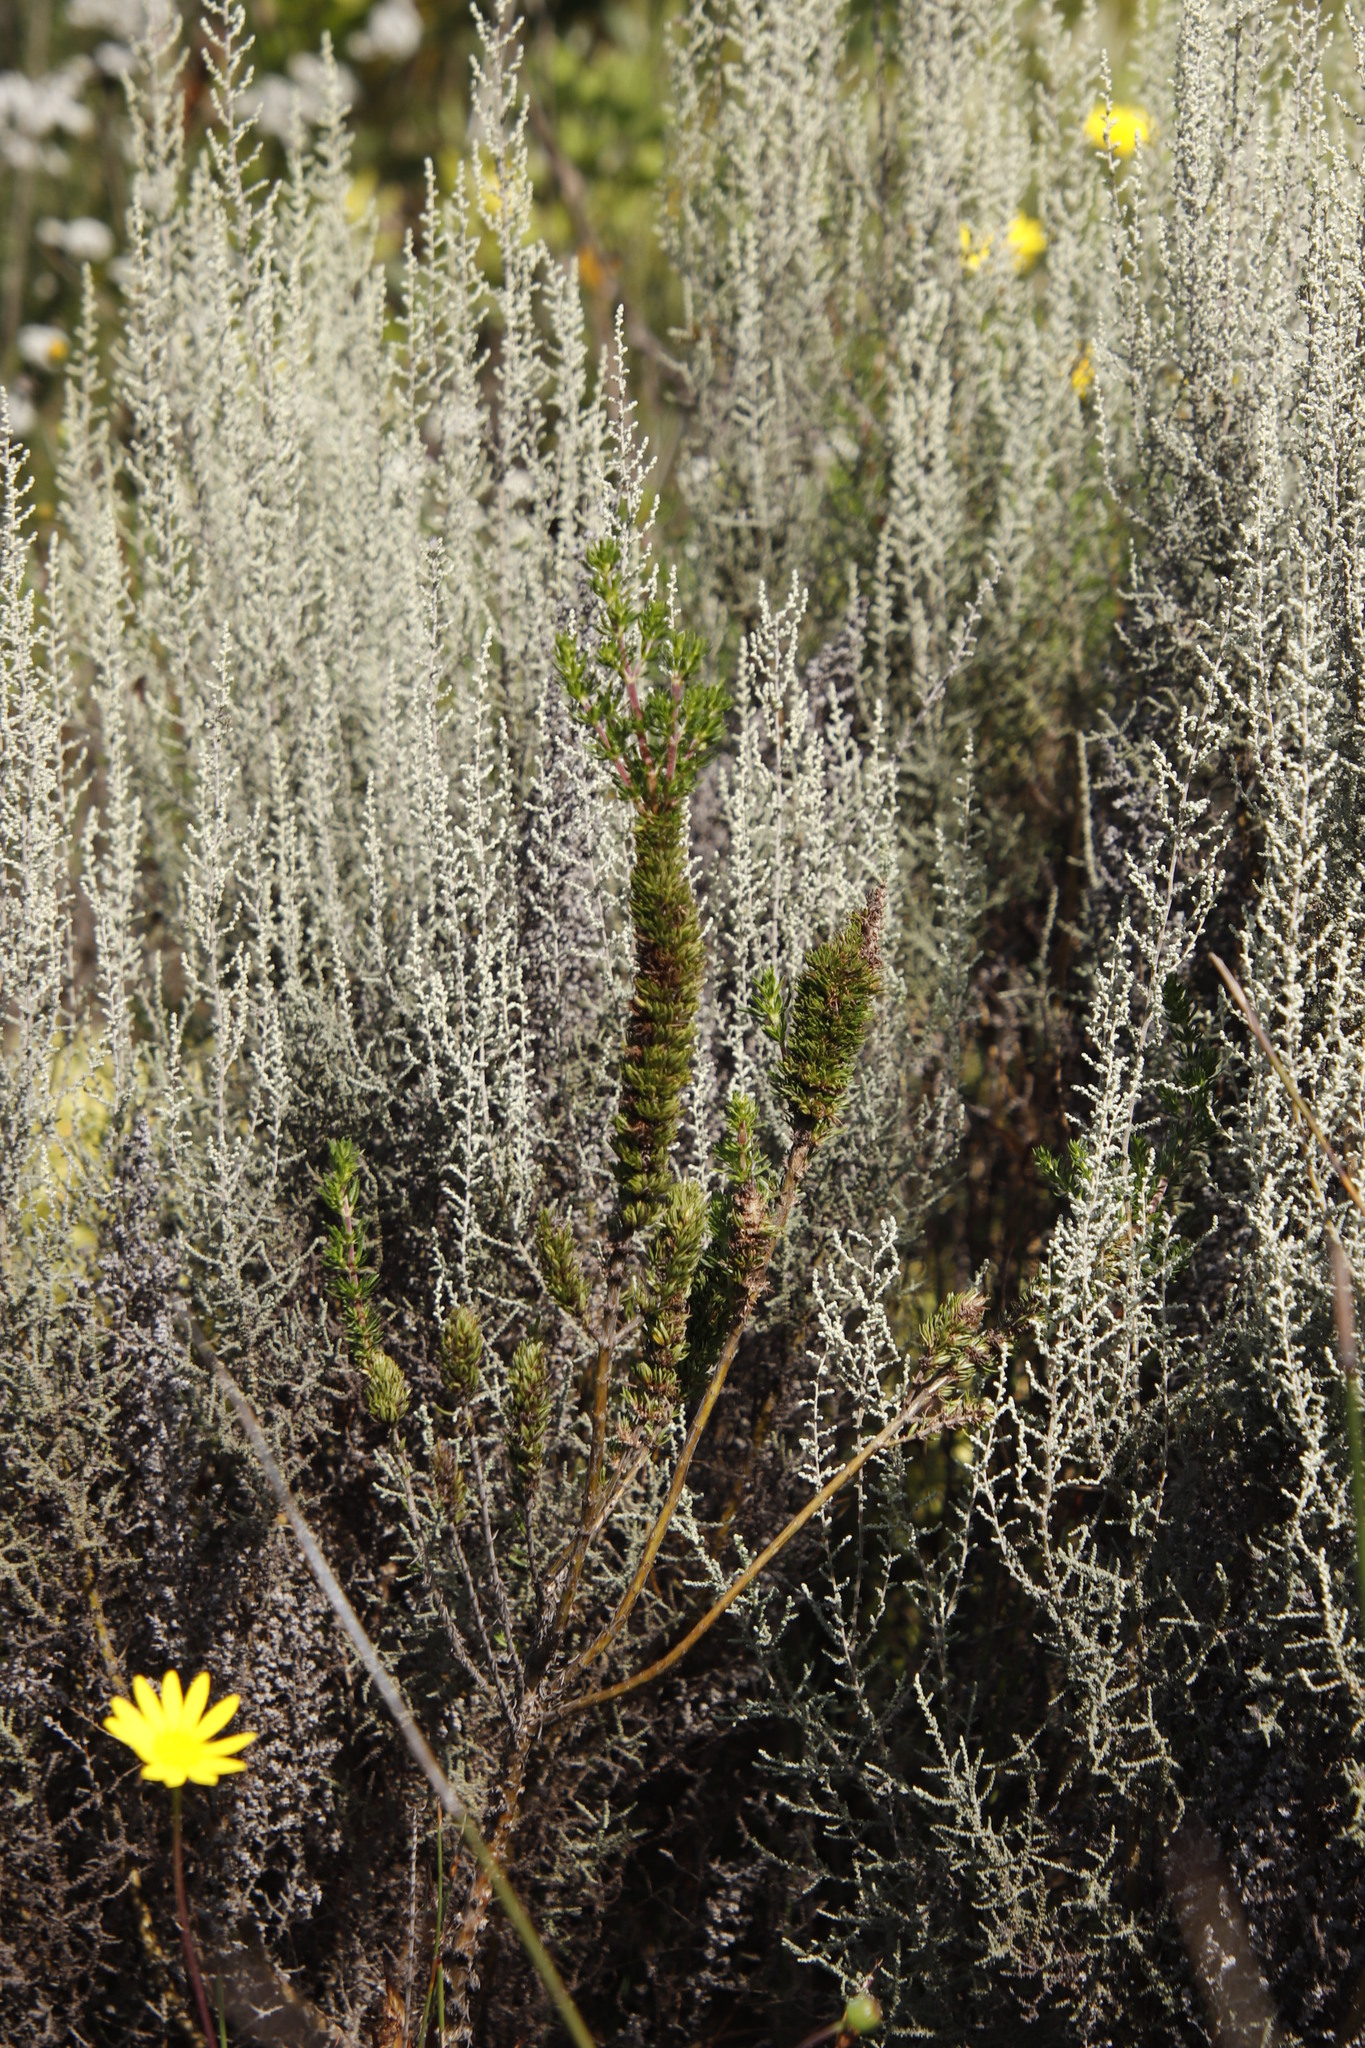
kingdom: Plantae
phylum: Tracheophyta
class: Magnoliopsida
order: Asterales
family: Asteraceae
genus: Seriphium
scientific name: Seriphium plumosum
